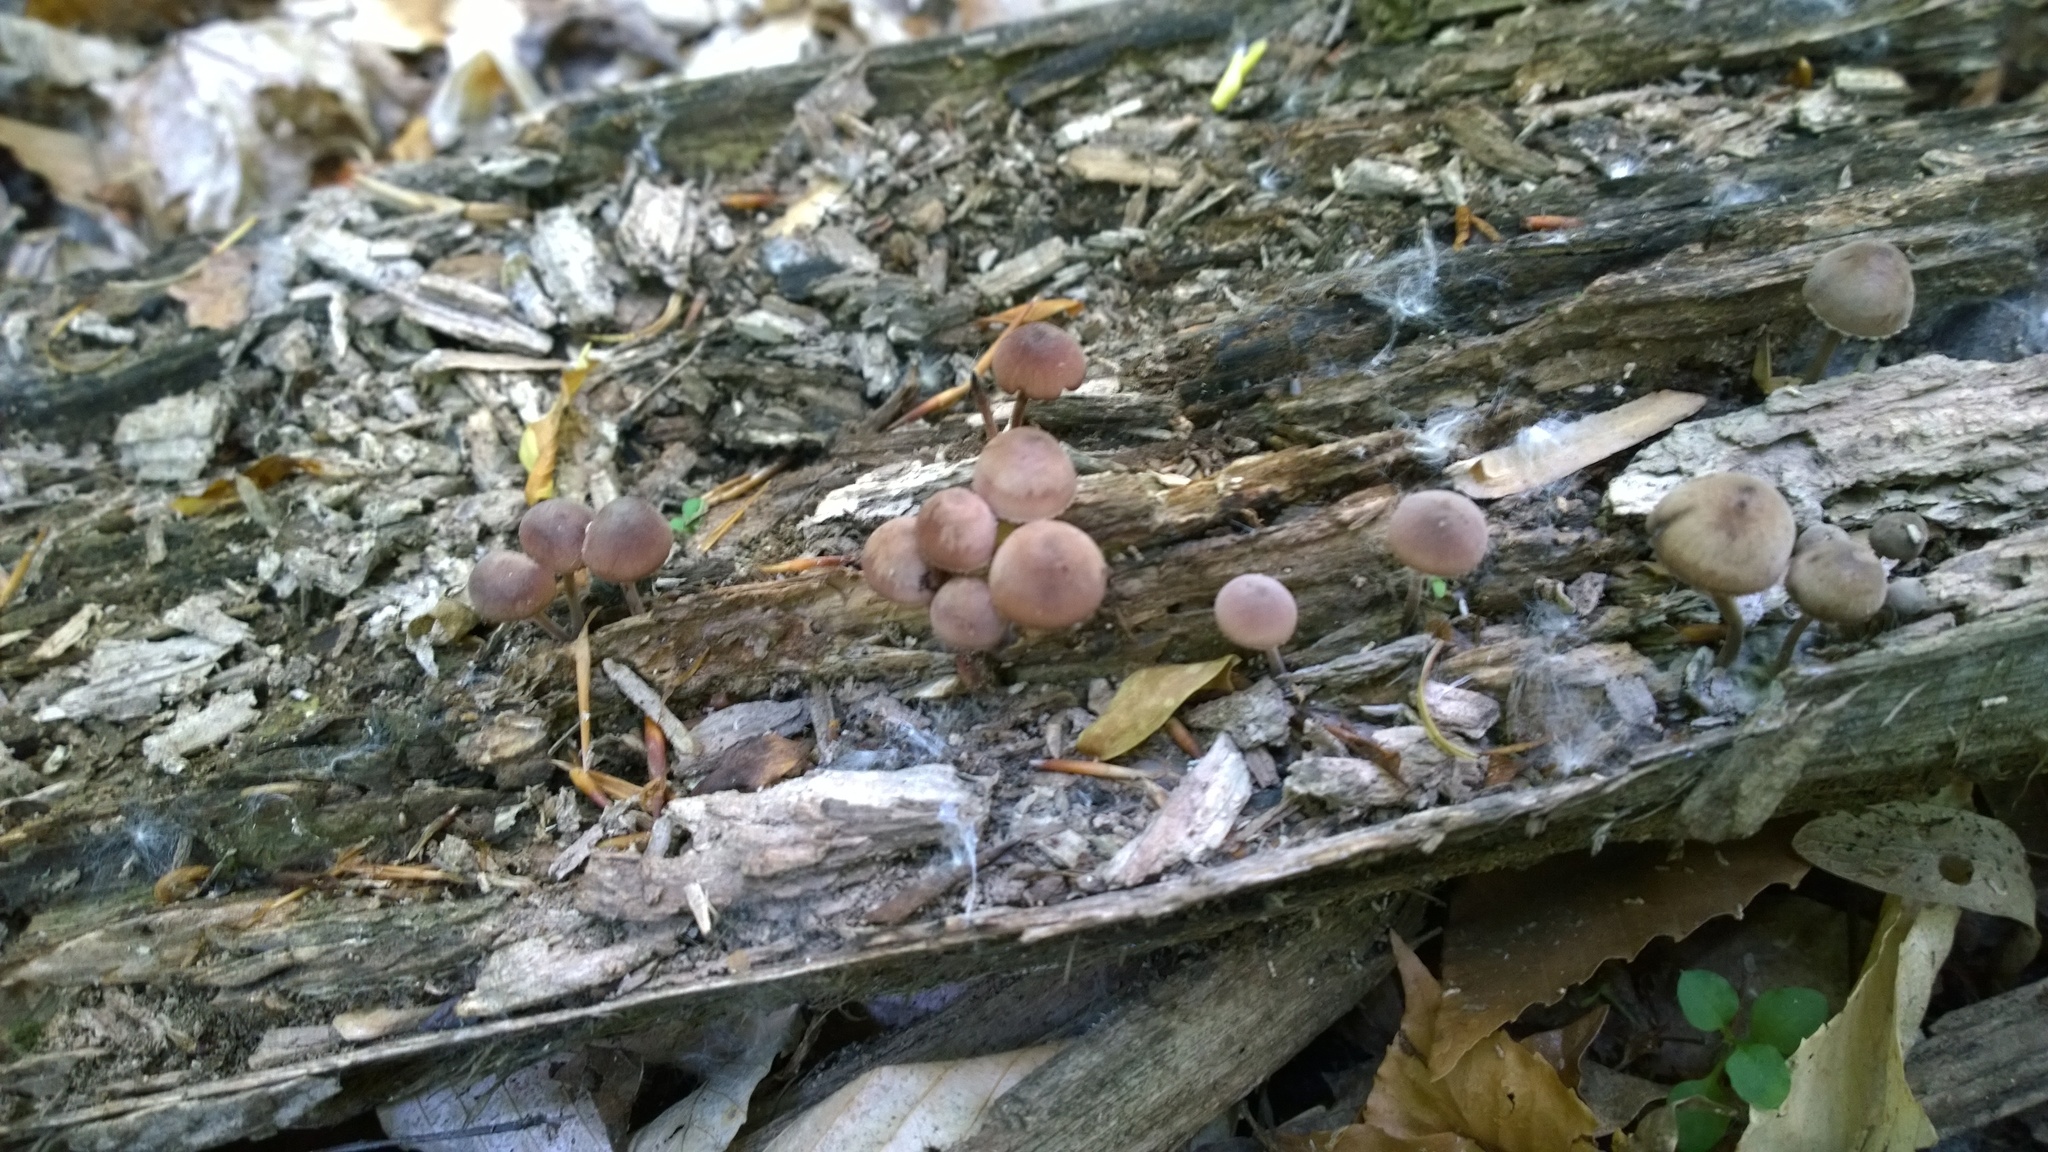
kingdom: Fungi
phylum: Basidiomycota
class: Agaricomycetes
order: Agaricales
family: Mycenaceae
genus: Mycena
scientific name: Mycena haematopus
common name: Burgundydrop bonnet
